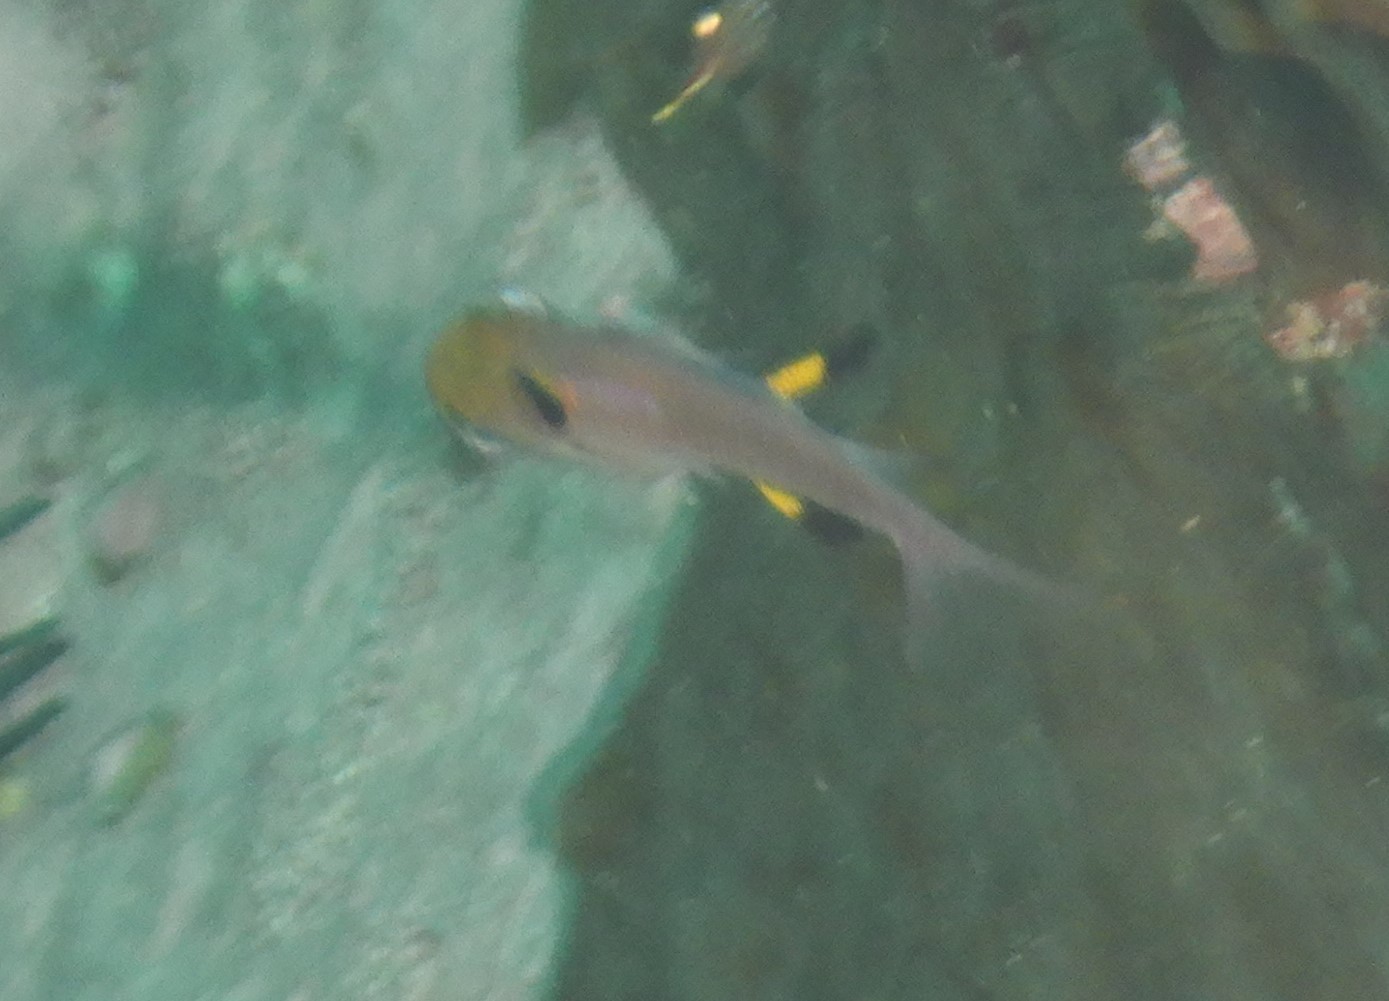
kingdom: Animalia
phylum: Chordata
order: Perciformes
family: Pempheridae
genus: Pempheris
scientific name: Pempheris multiradiata
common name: Big-scaled bullseye
